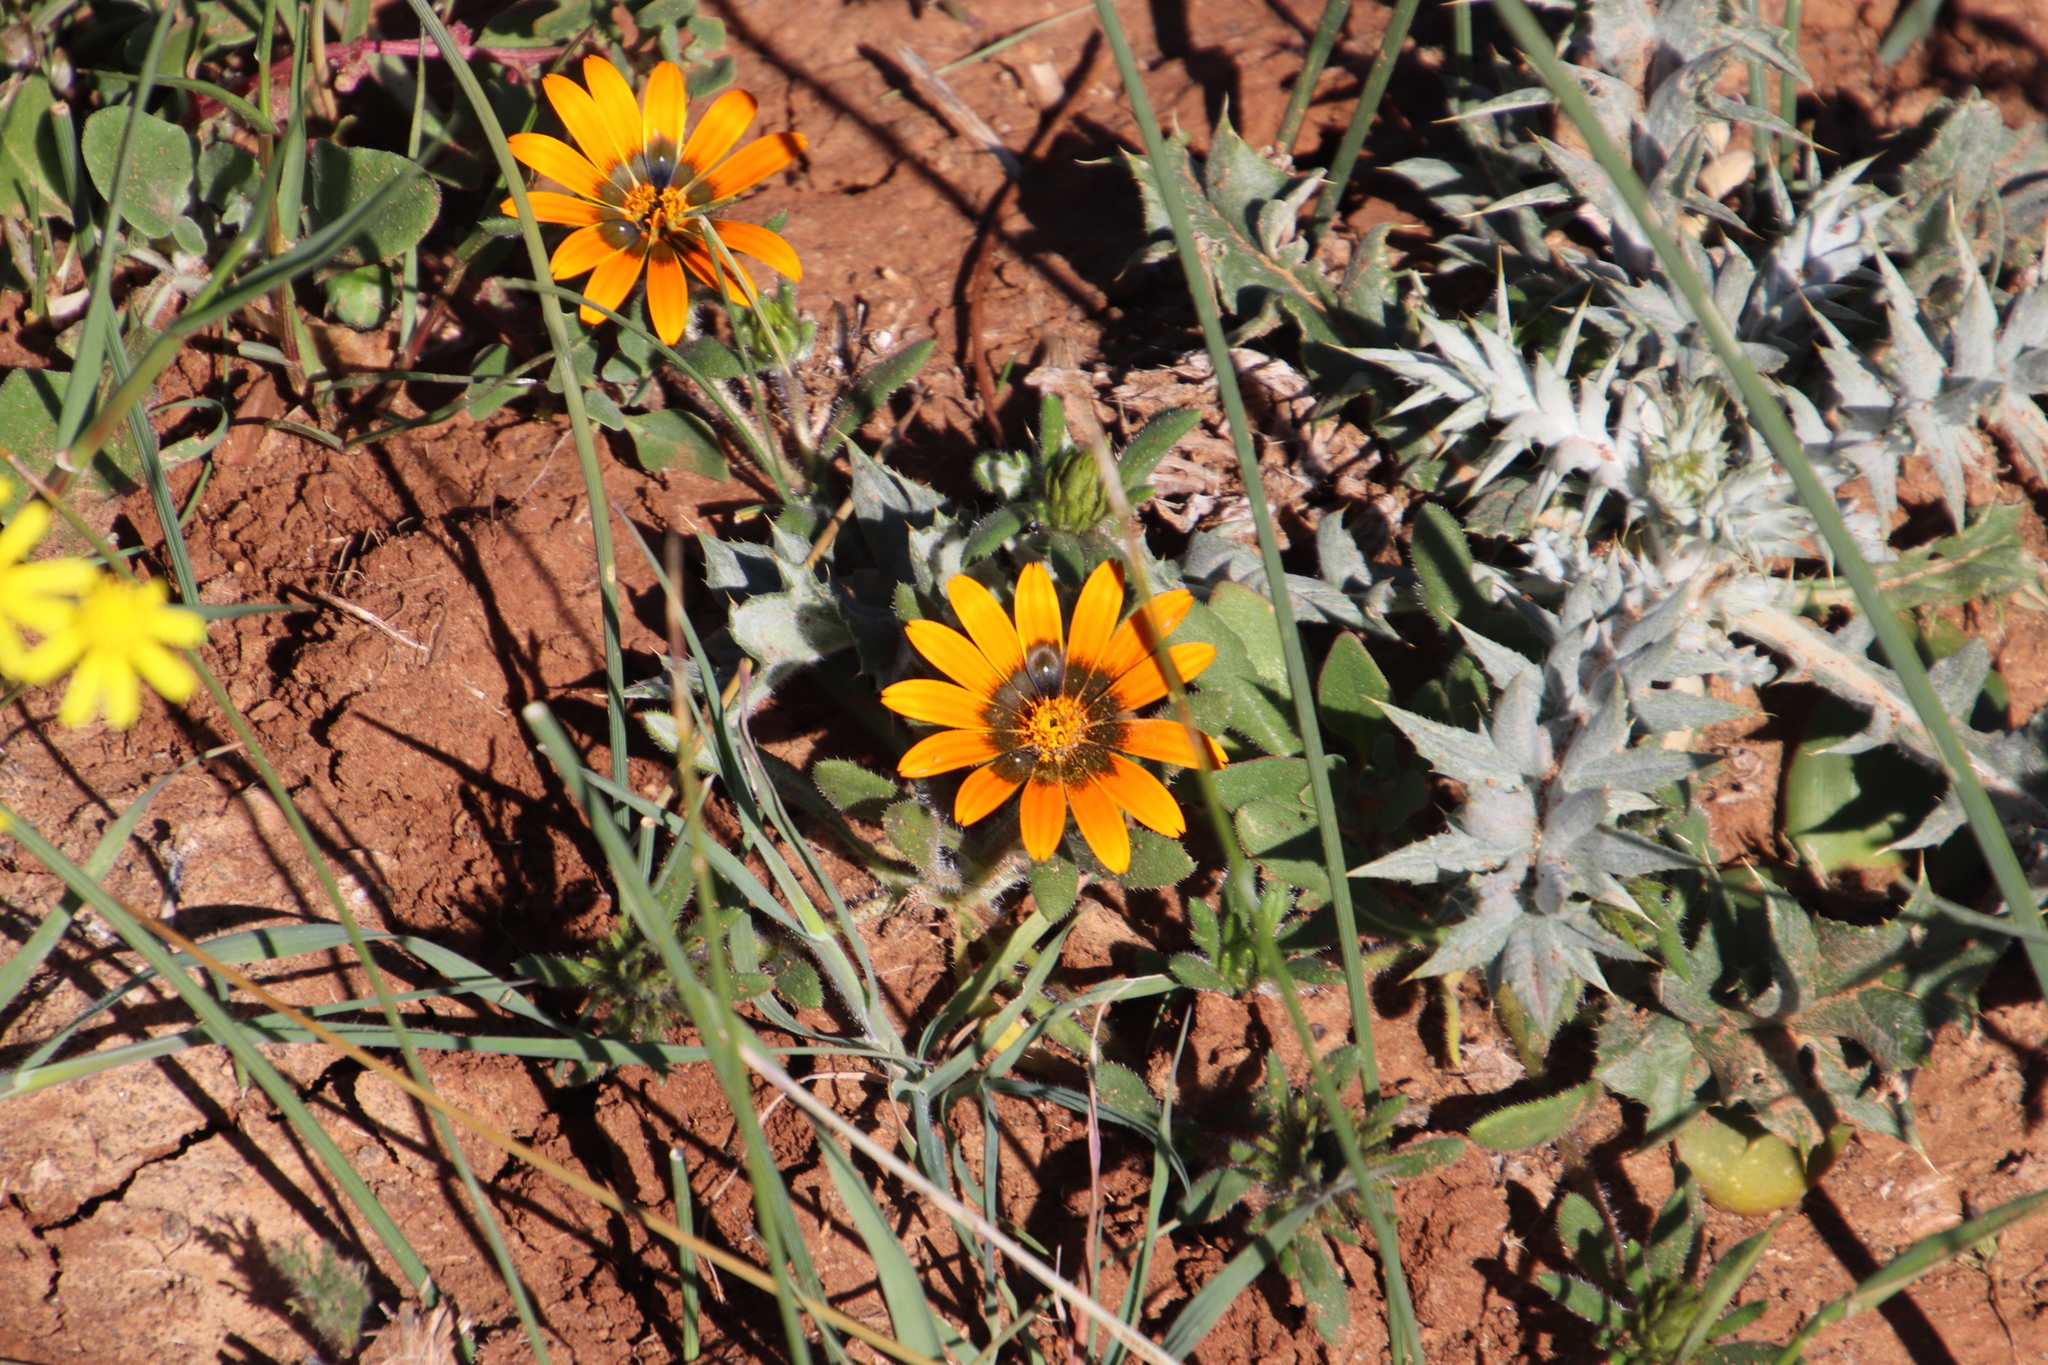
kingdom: Plantae
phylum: Tracheophyta
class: Magnoliopsida
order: Asterales
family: Asteraceae
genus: Gorteria
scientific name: Gorteria diffusa
